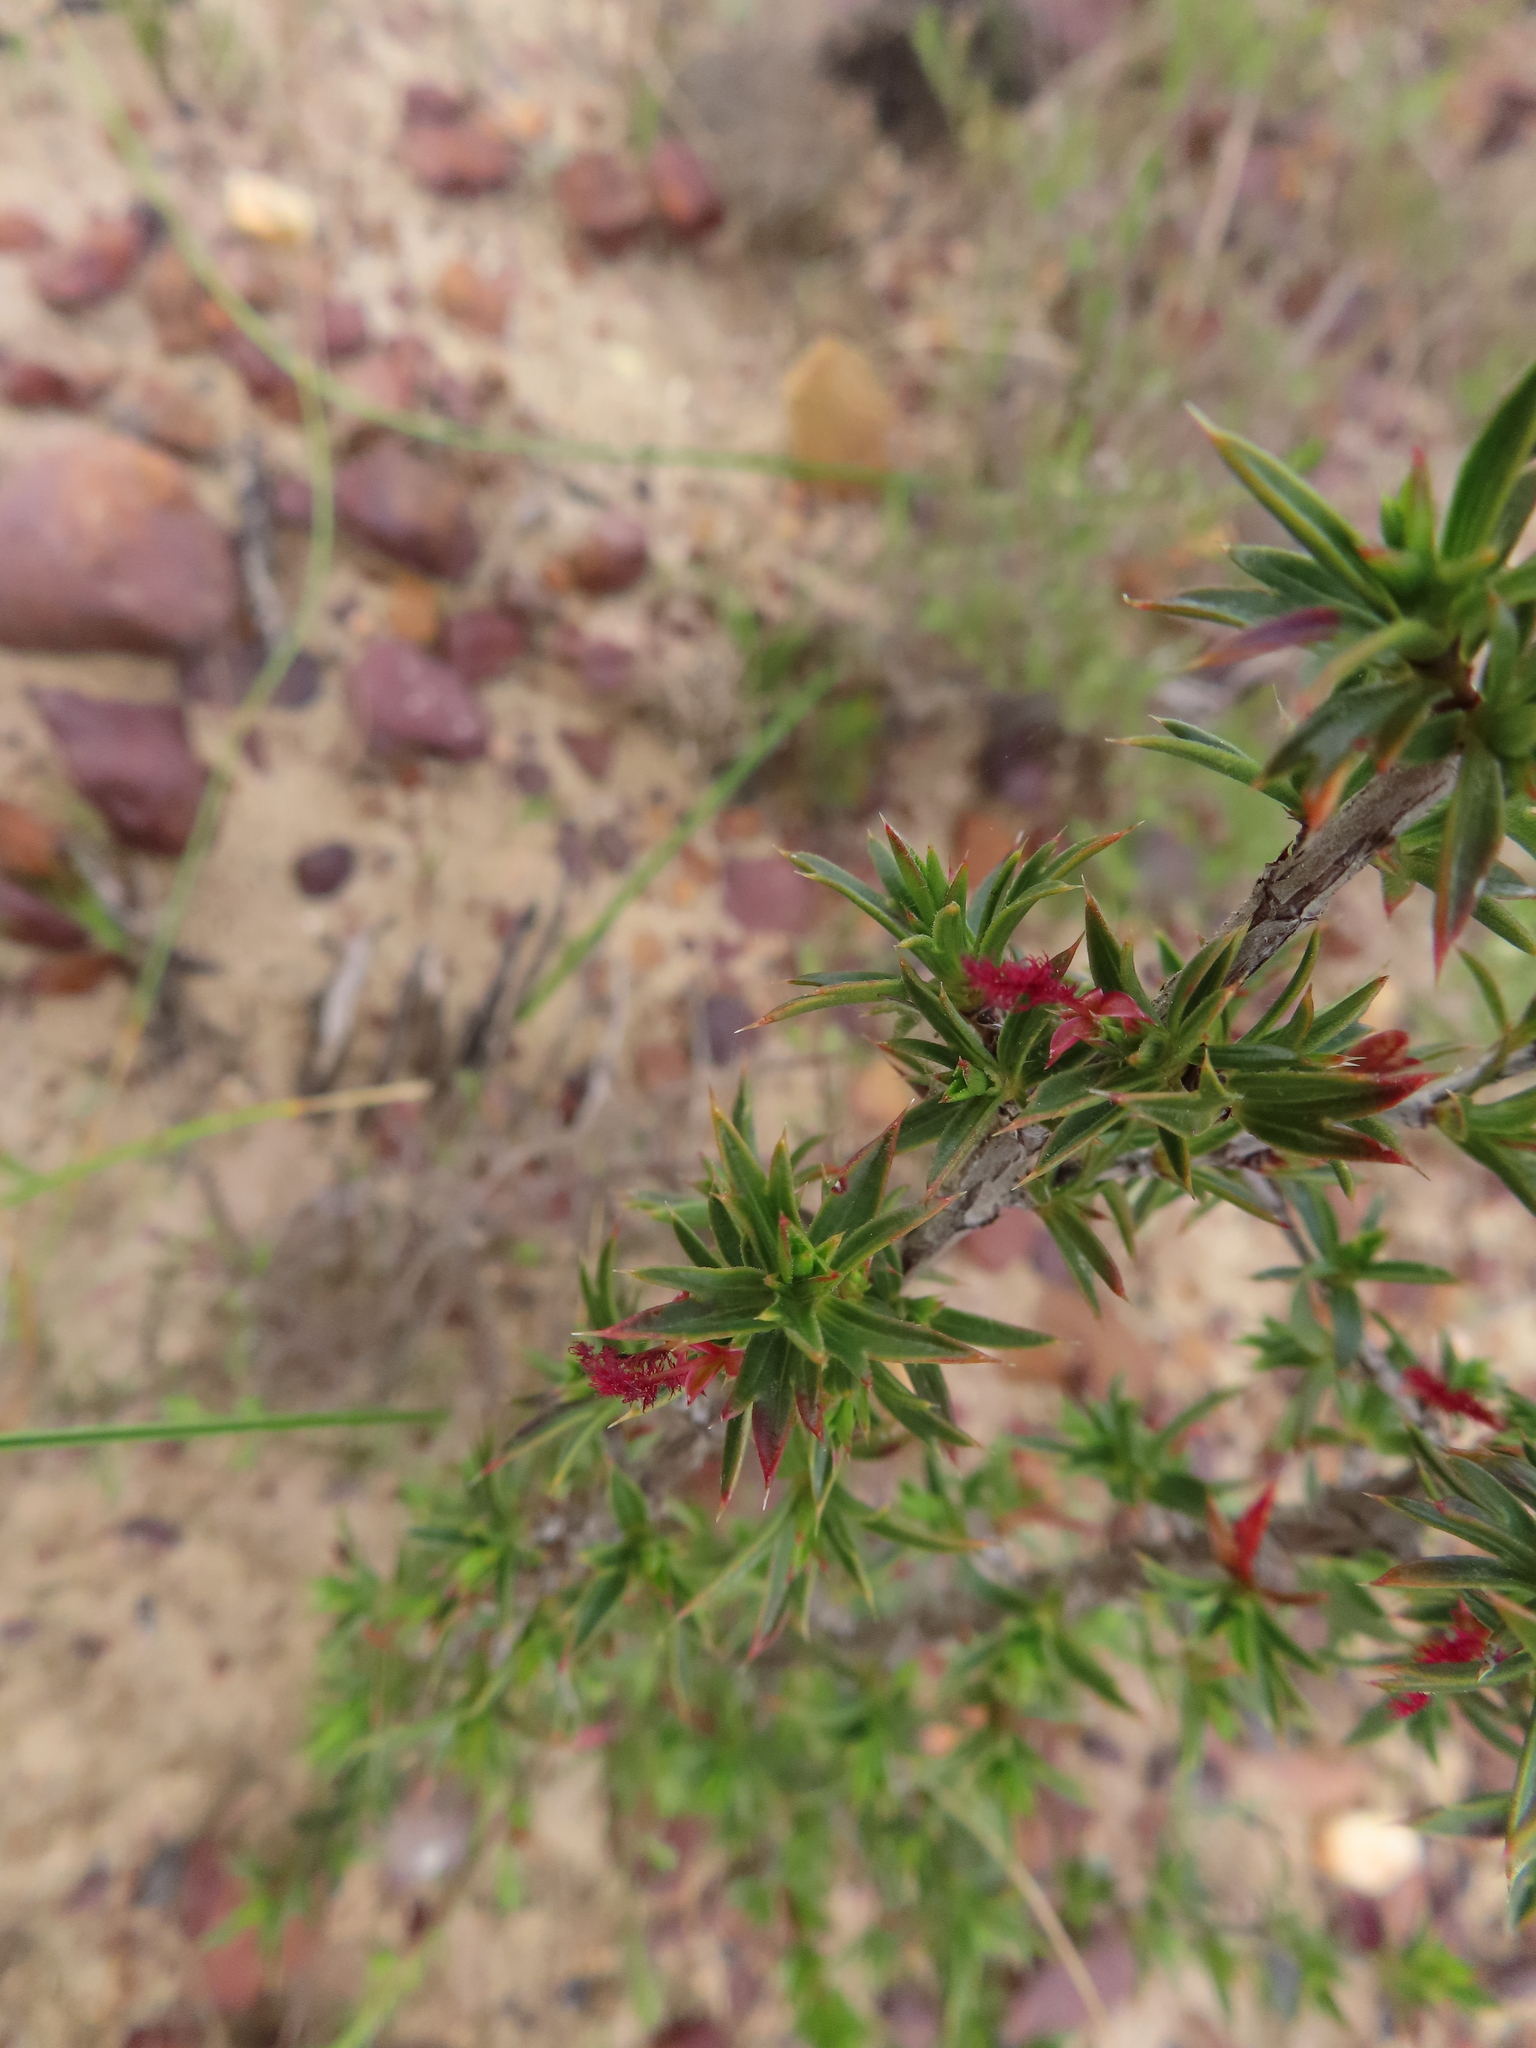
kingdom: Plantae
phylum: Tracheophyta
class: Magnoliopsida
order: Rosales
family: Rosaceae
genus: Cliffortia
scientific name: Cliffortia ferricola
